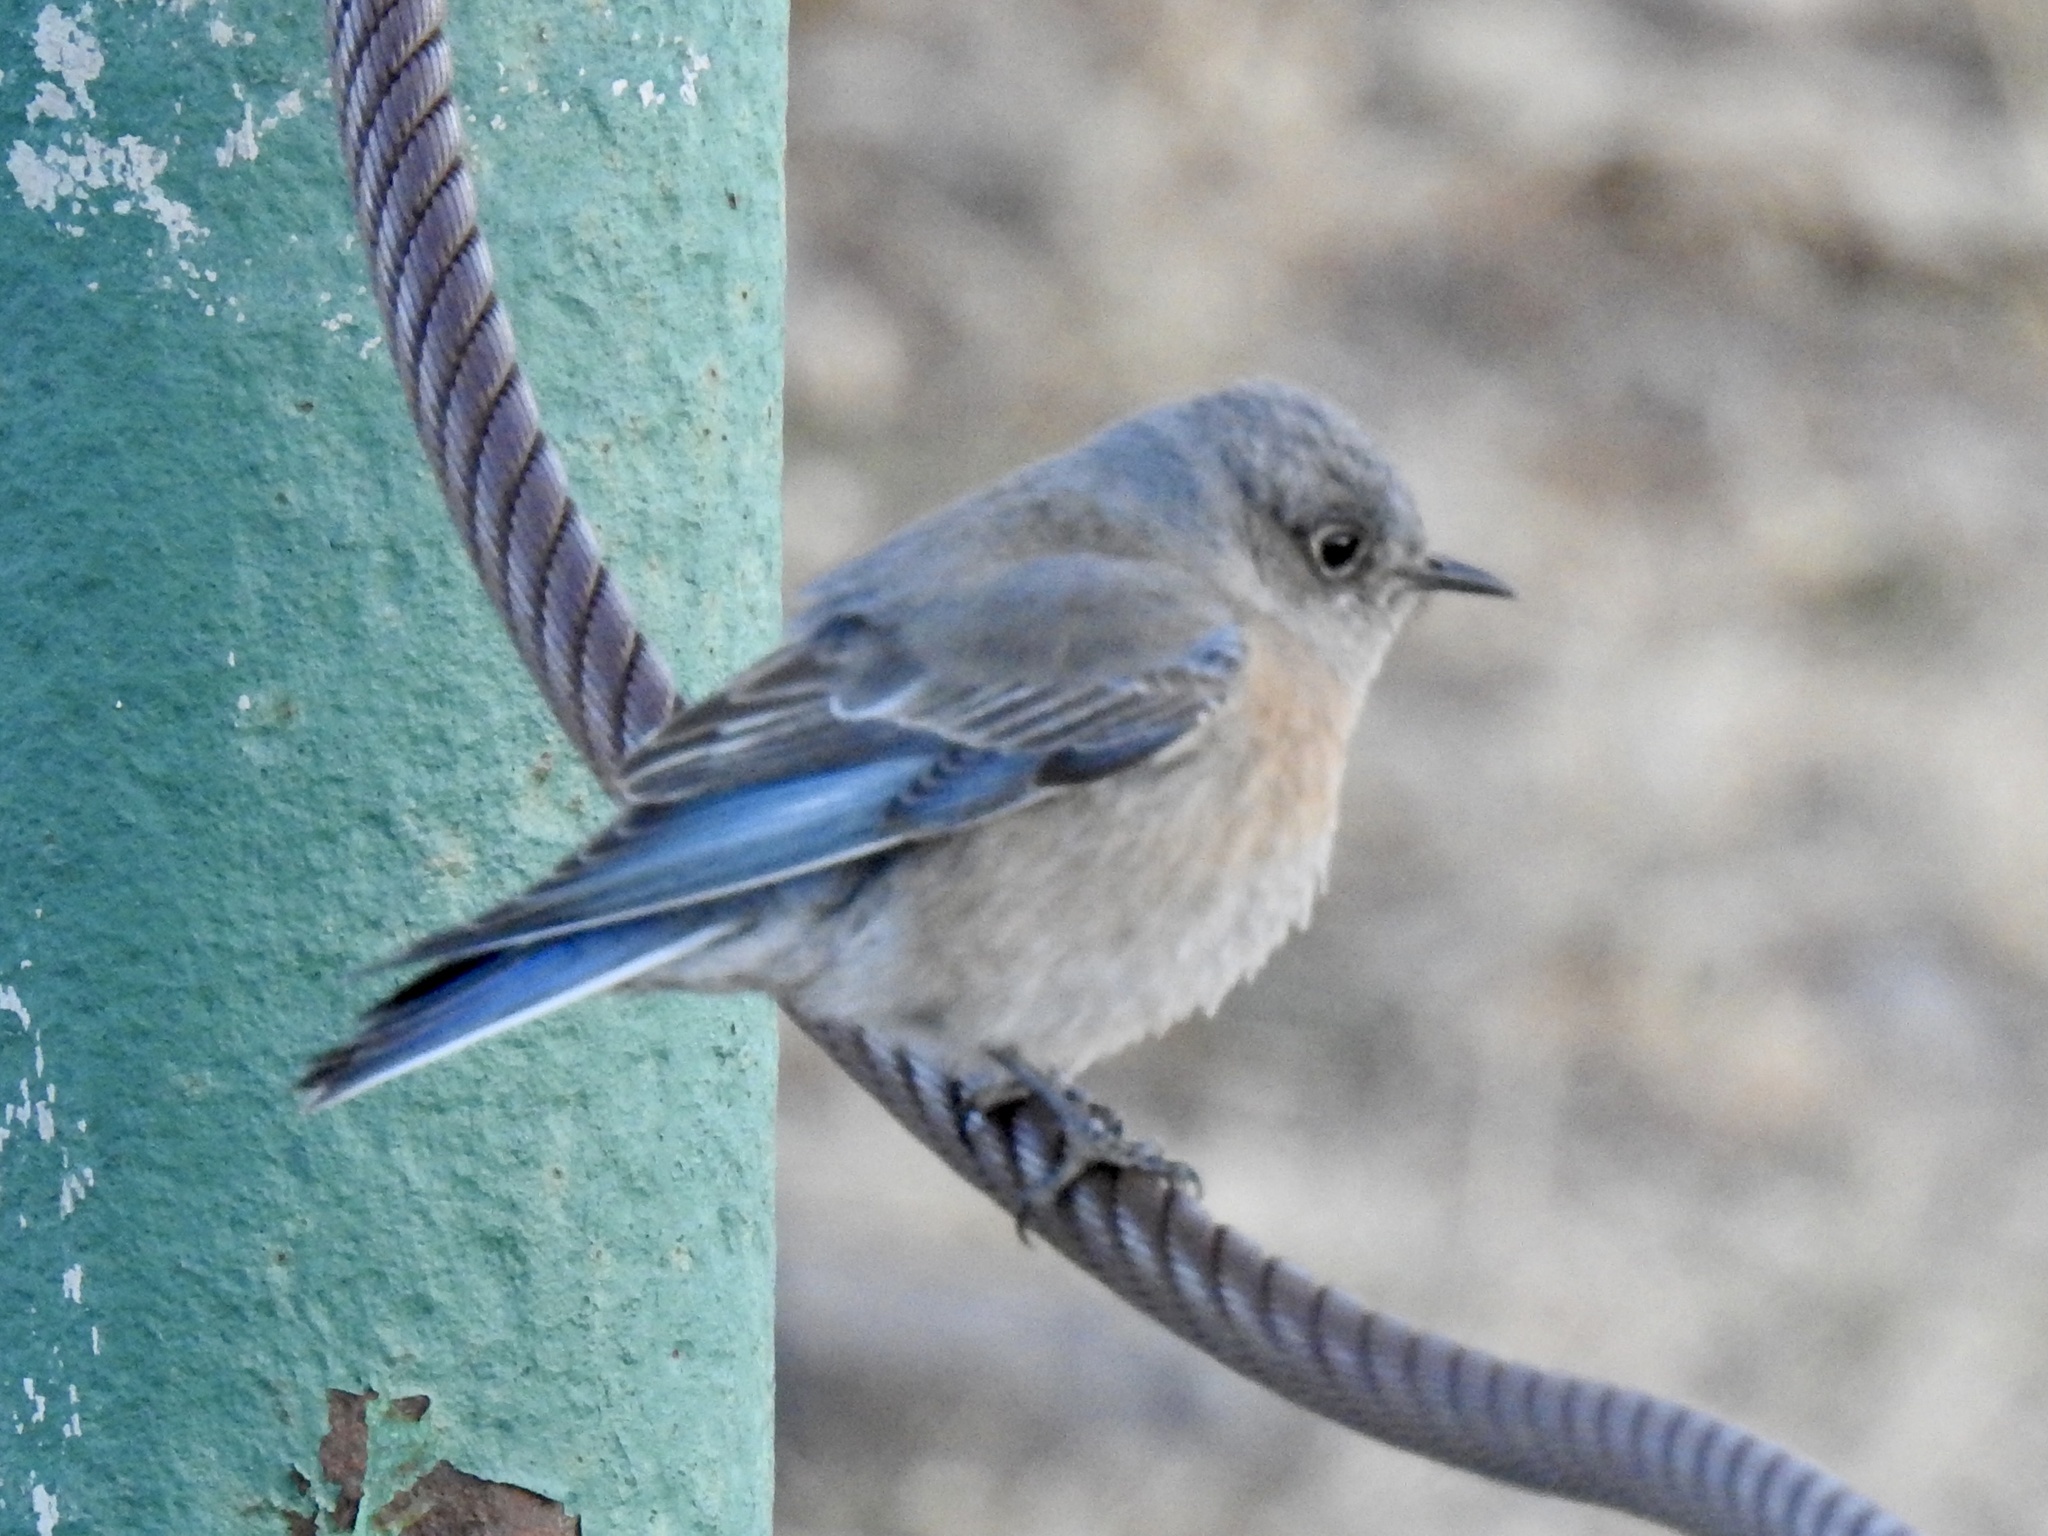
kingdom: Animalia
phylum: Chordata
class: Aves
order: Passeriformes
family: Turdidae
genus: Sialia
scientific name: Sialia mexicana
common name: Western bluebird
